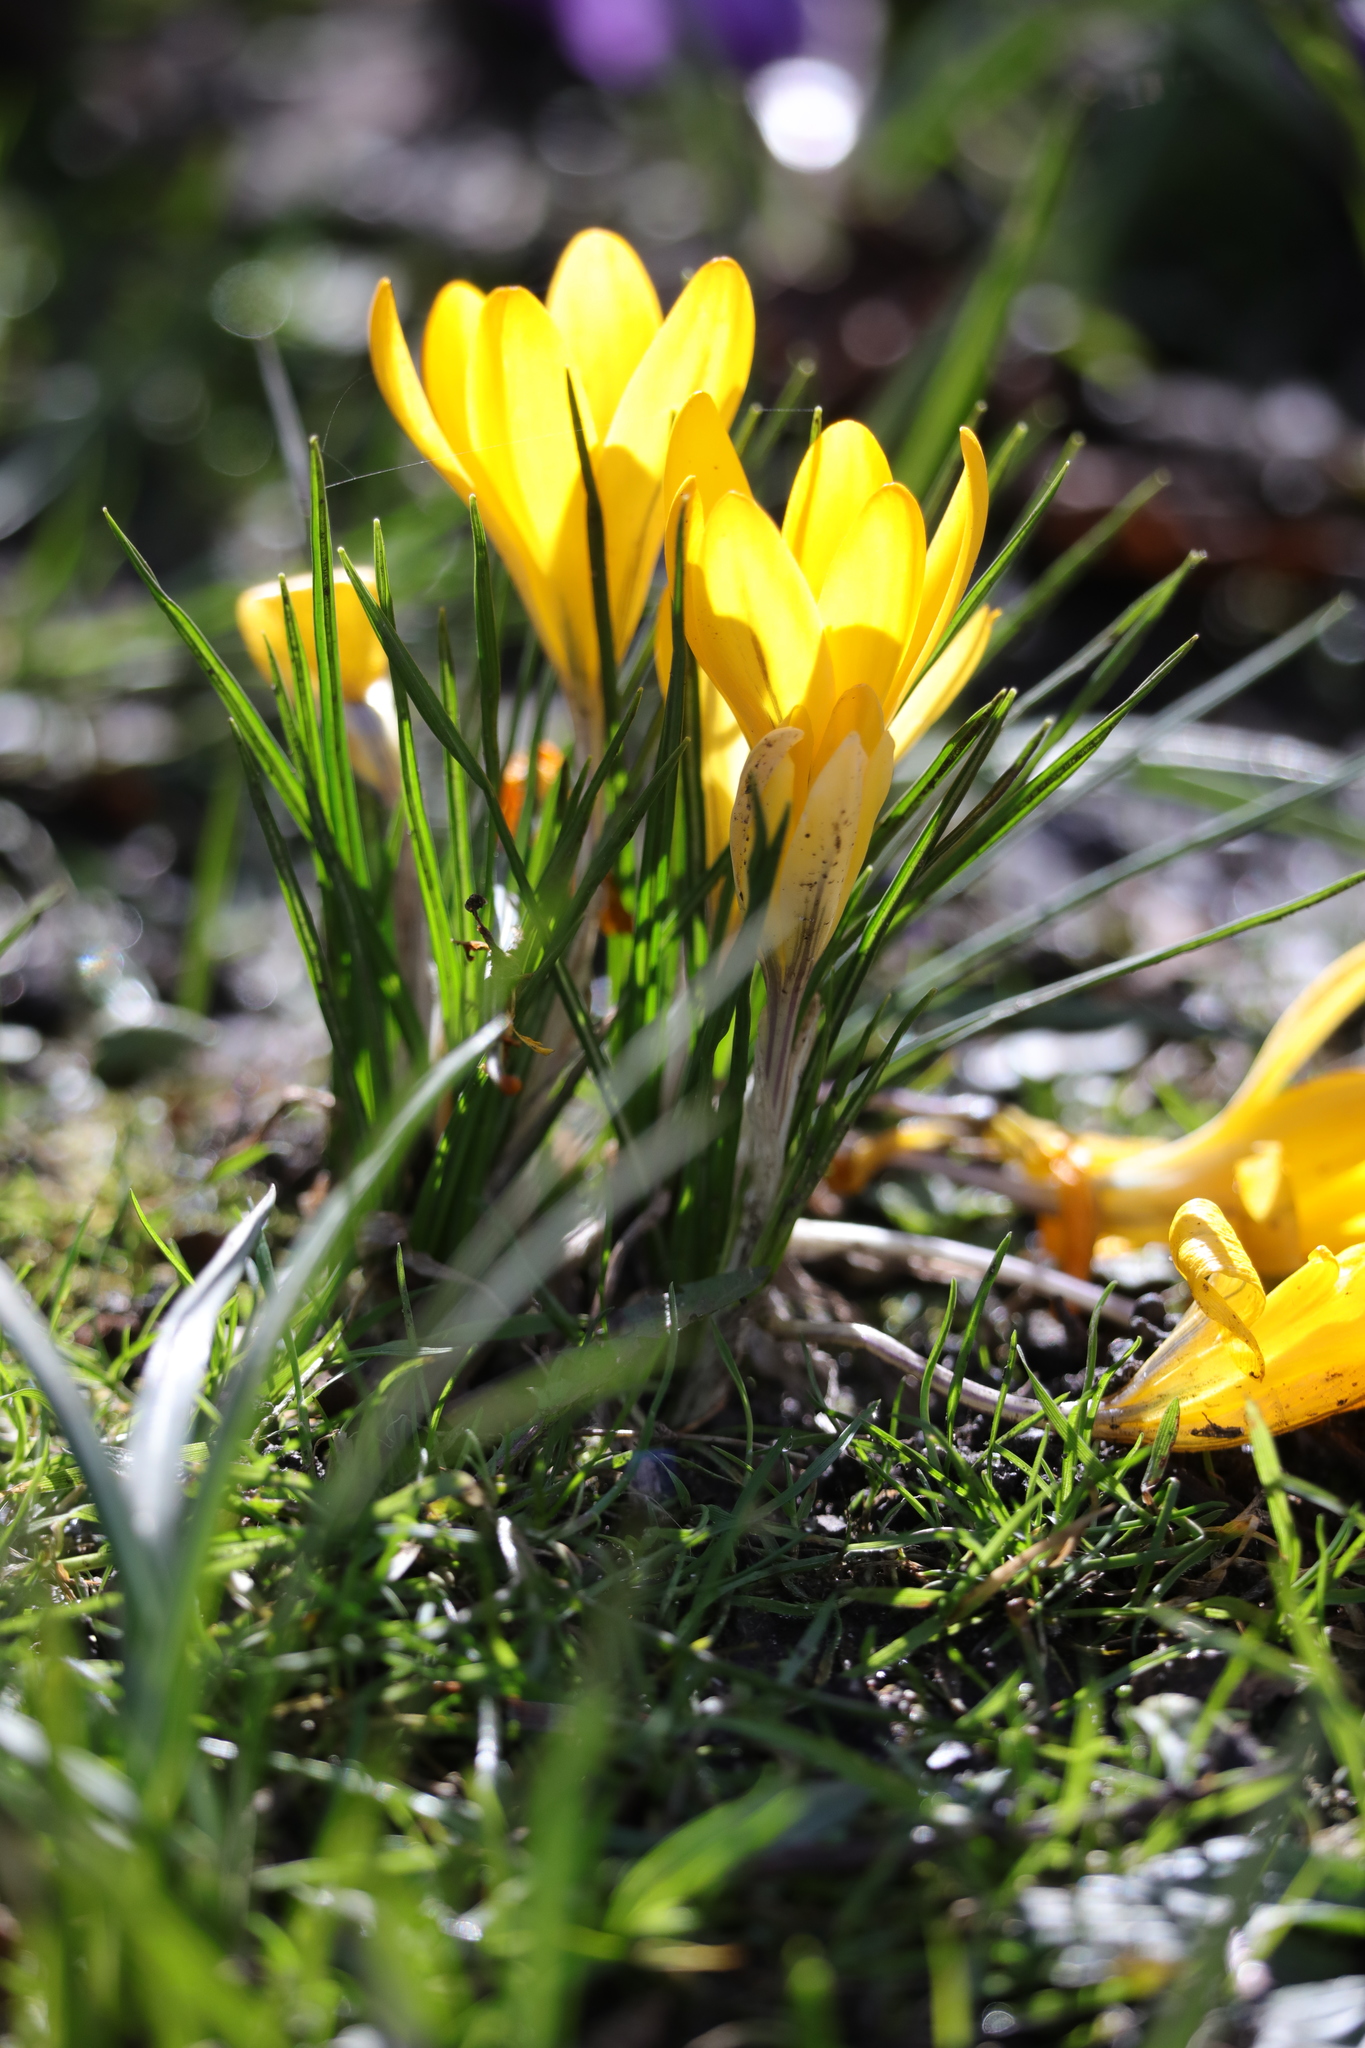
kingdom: Plantae
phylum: Tracheophyta
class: Liliopsida
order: Asparagales
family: Iridaceae
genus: Crocus
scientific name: Crocus luteus
